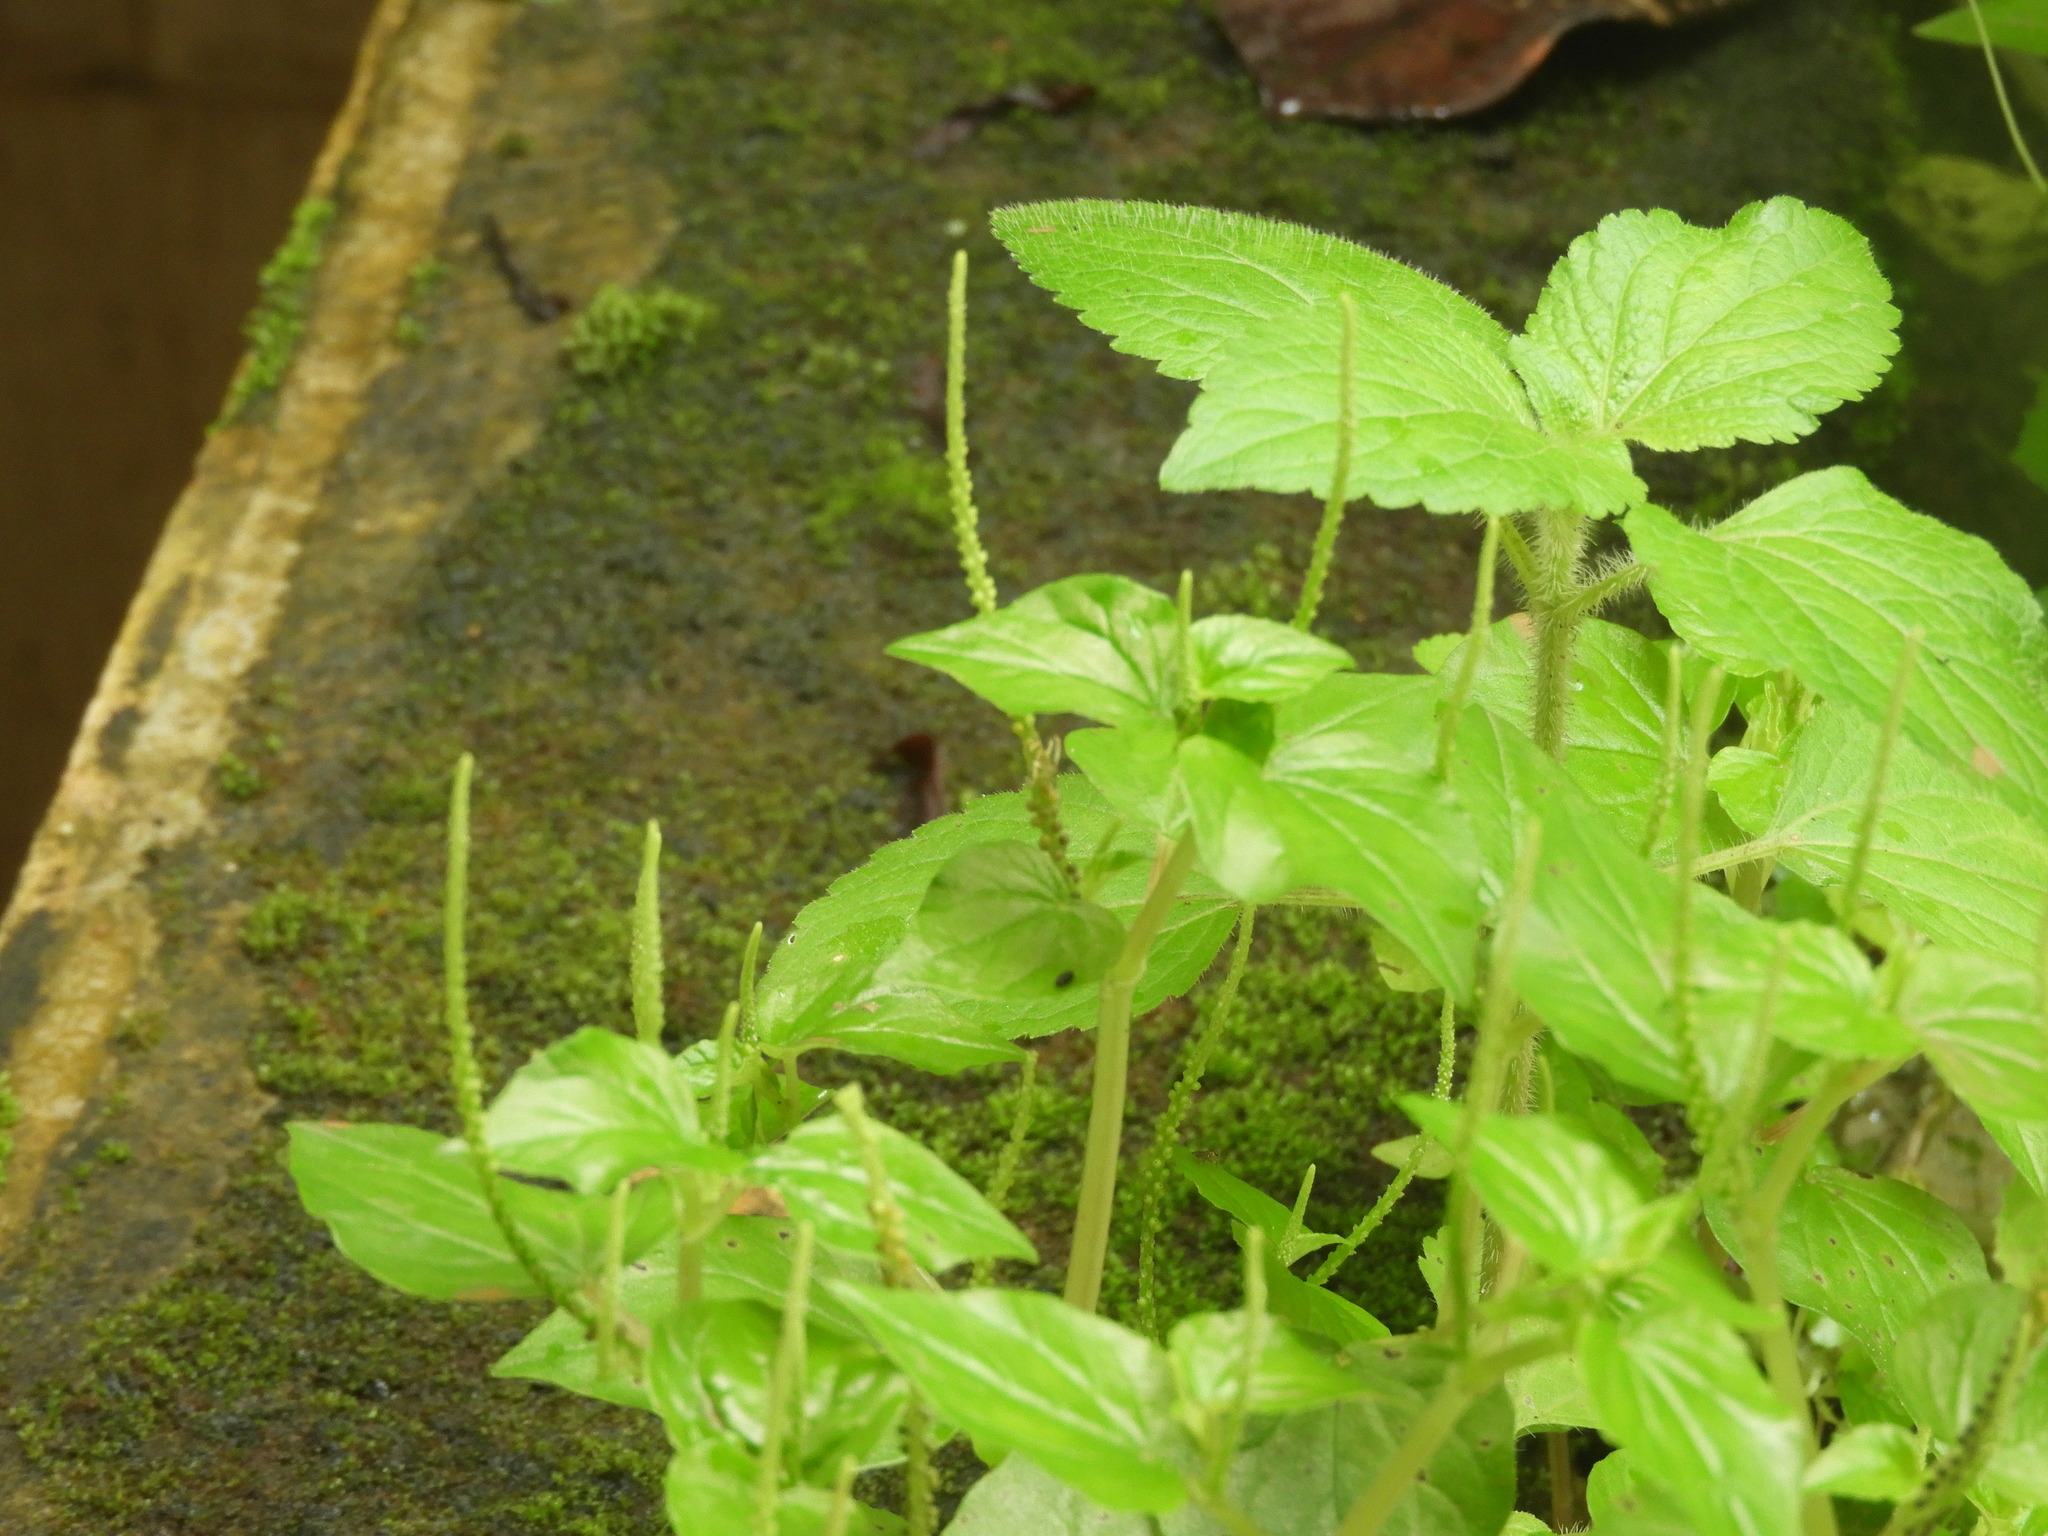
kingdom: Plantae
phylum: Tracheophyta
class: Magnoliopsida
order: Piperales
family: Piperaceae
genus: Peperomia
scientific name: Peperomia pellucida
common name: Man to man
